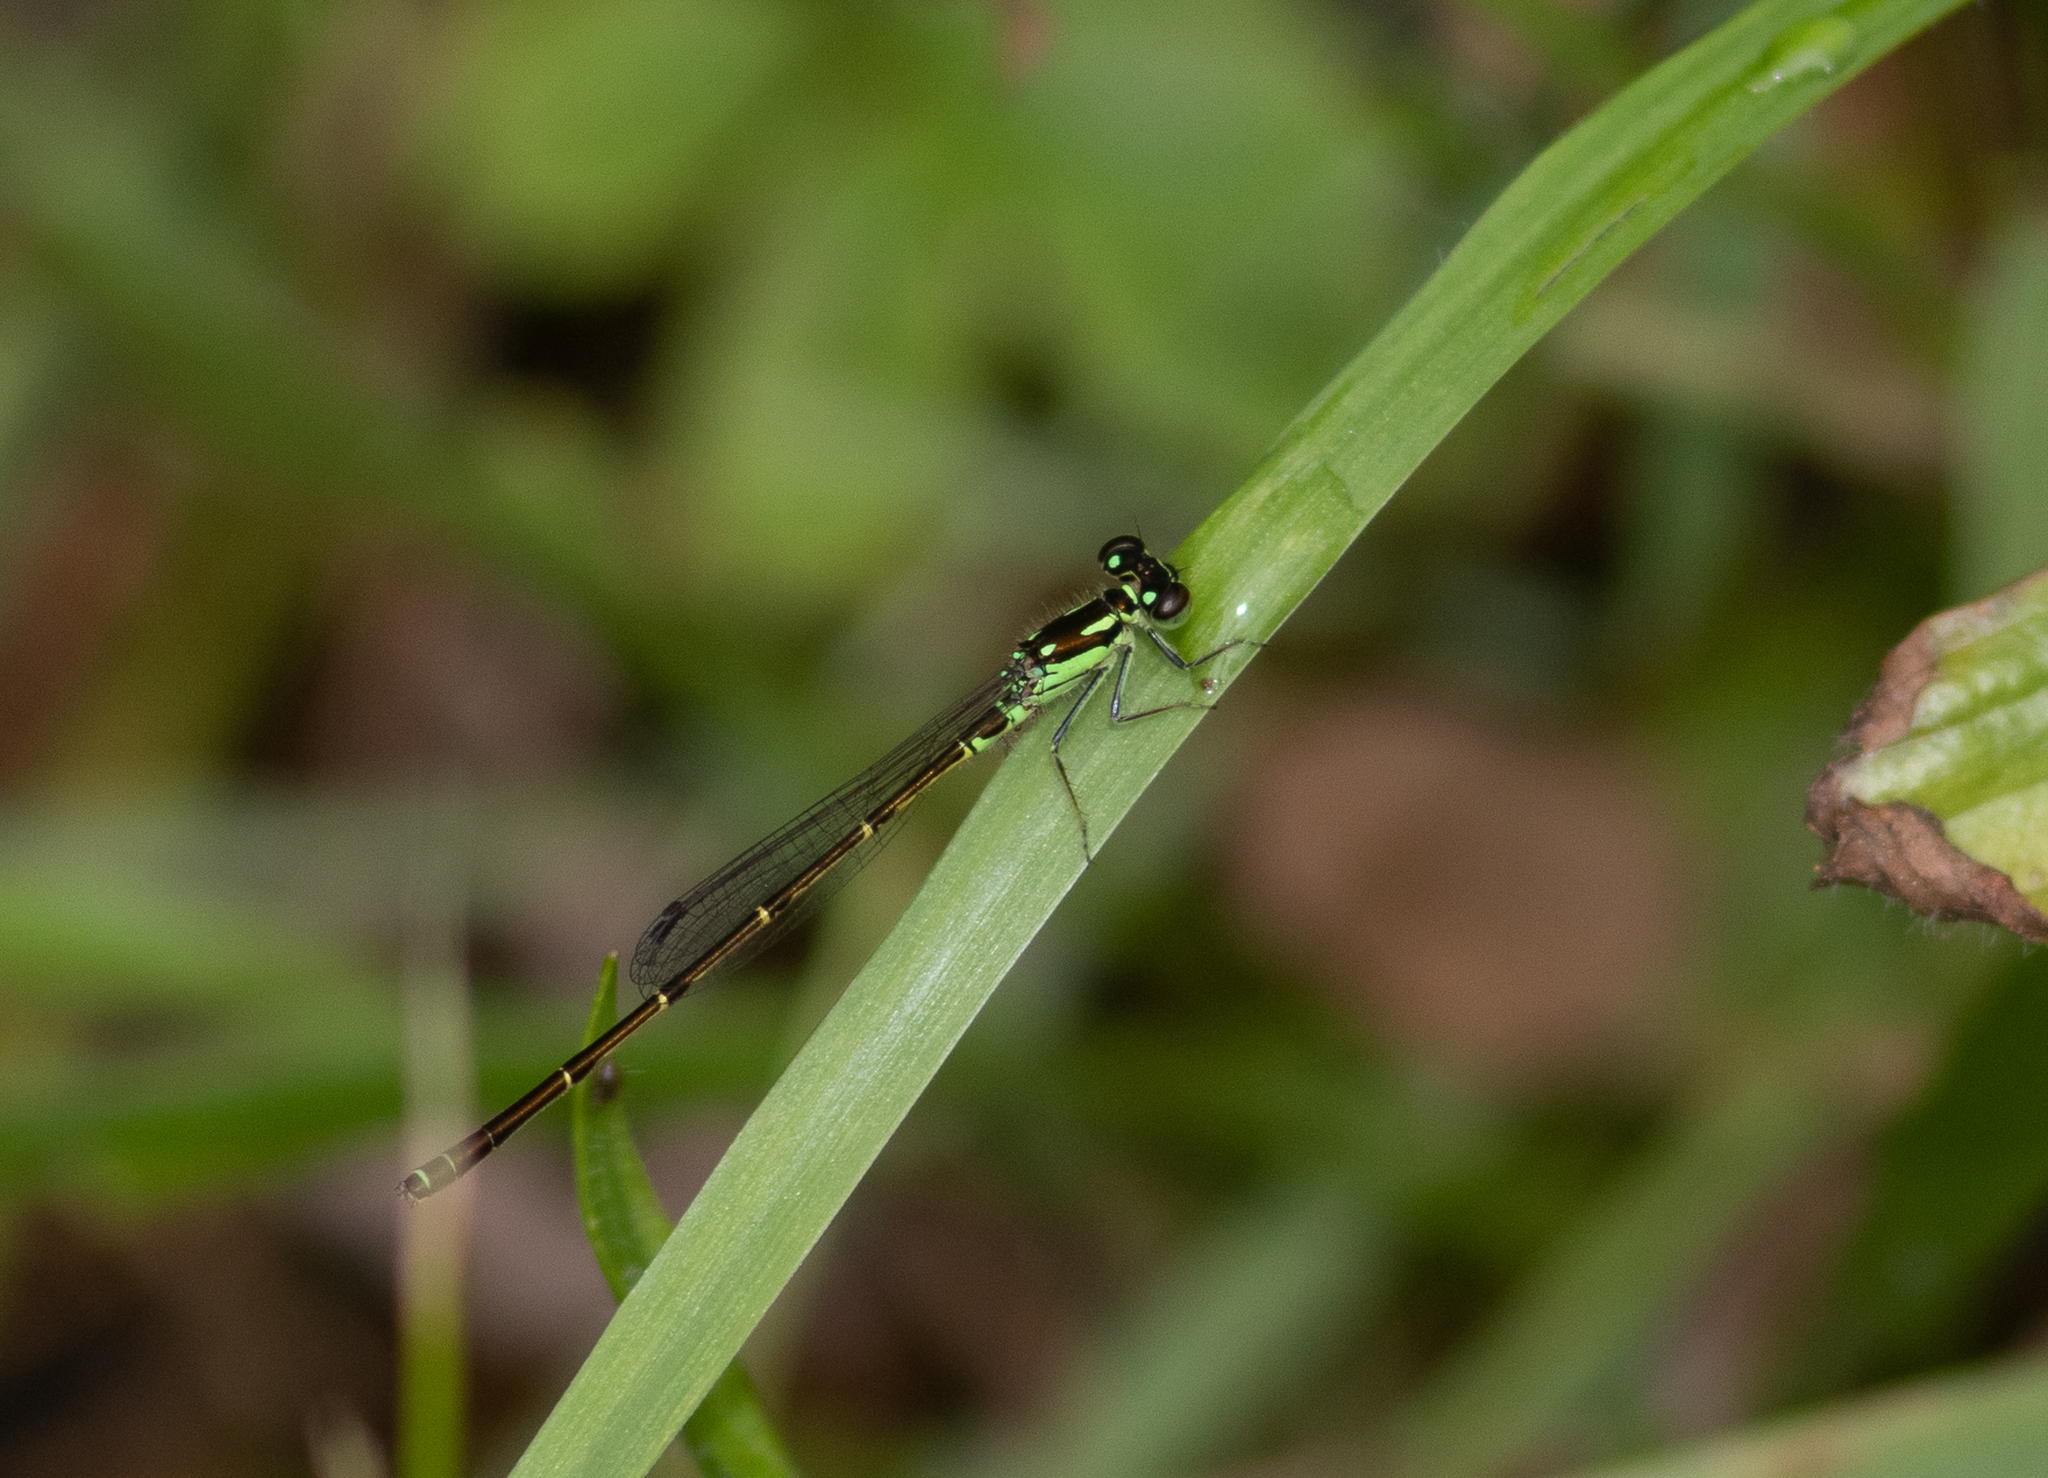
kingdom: Animalia
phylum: Arthropoda
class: Insecta
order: Odonata
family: Coenagrionidae
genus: Ischnura
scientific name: Ischnura posita
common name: Fragile forktail
